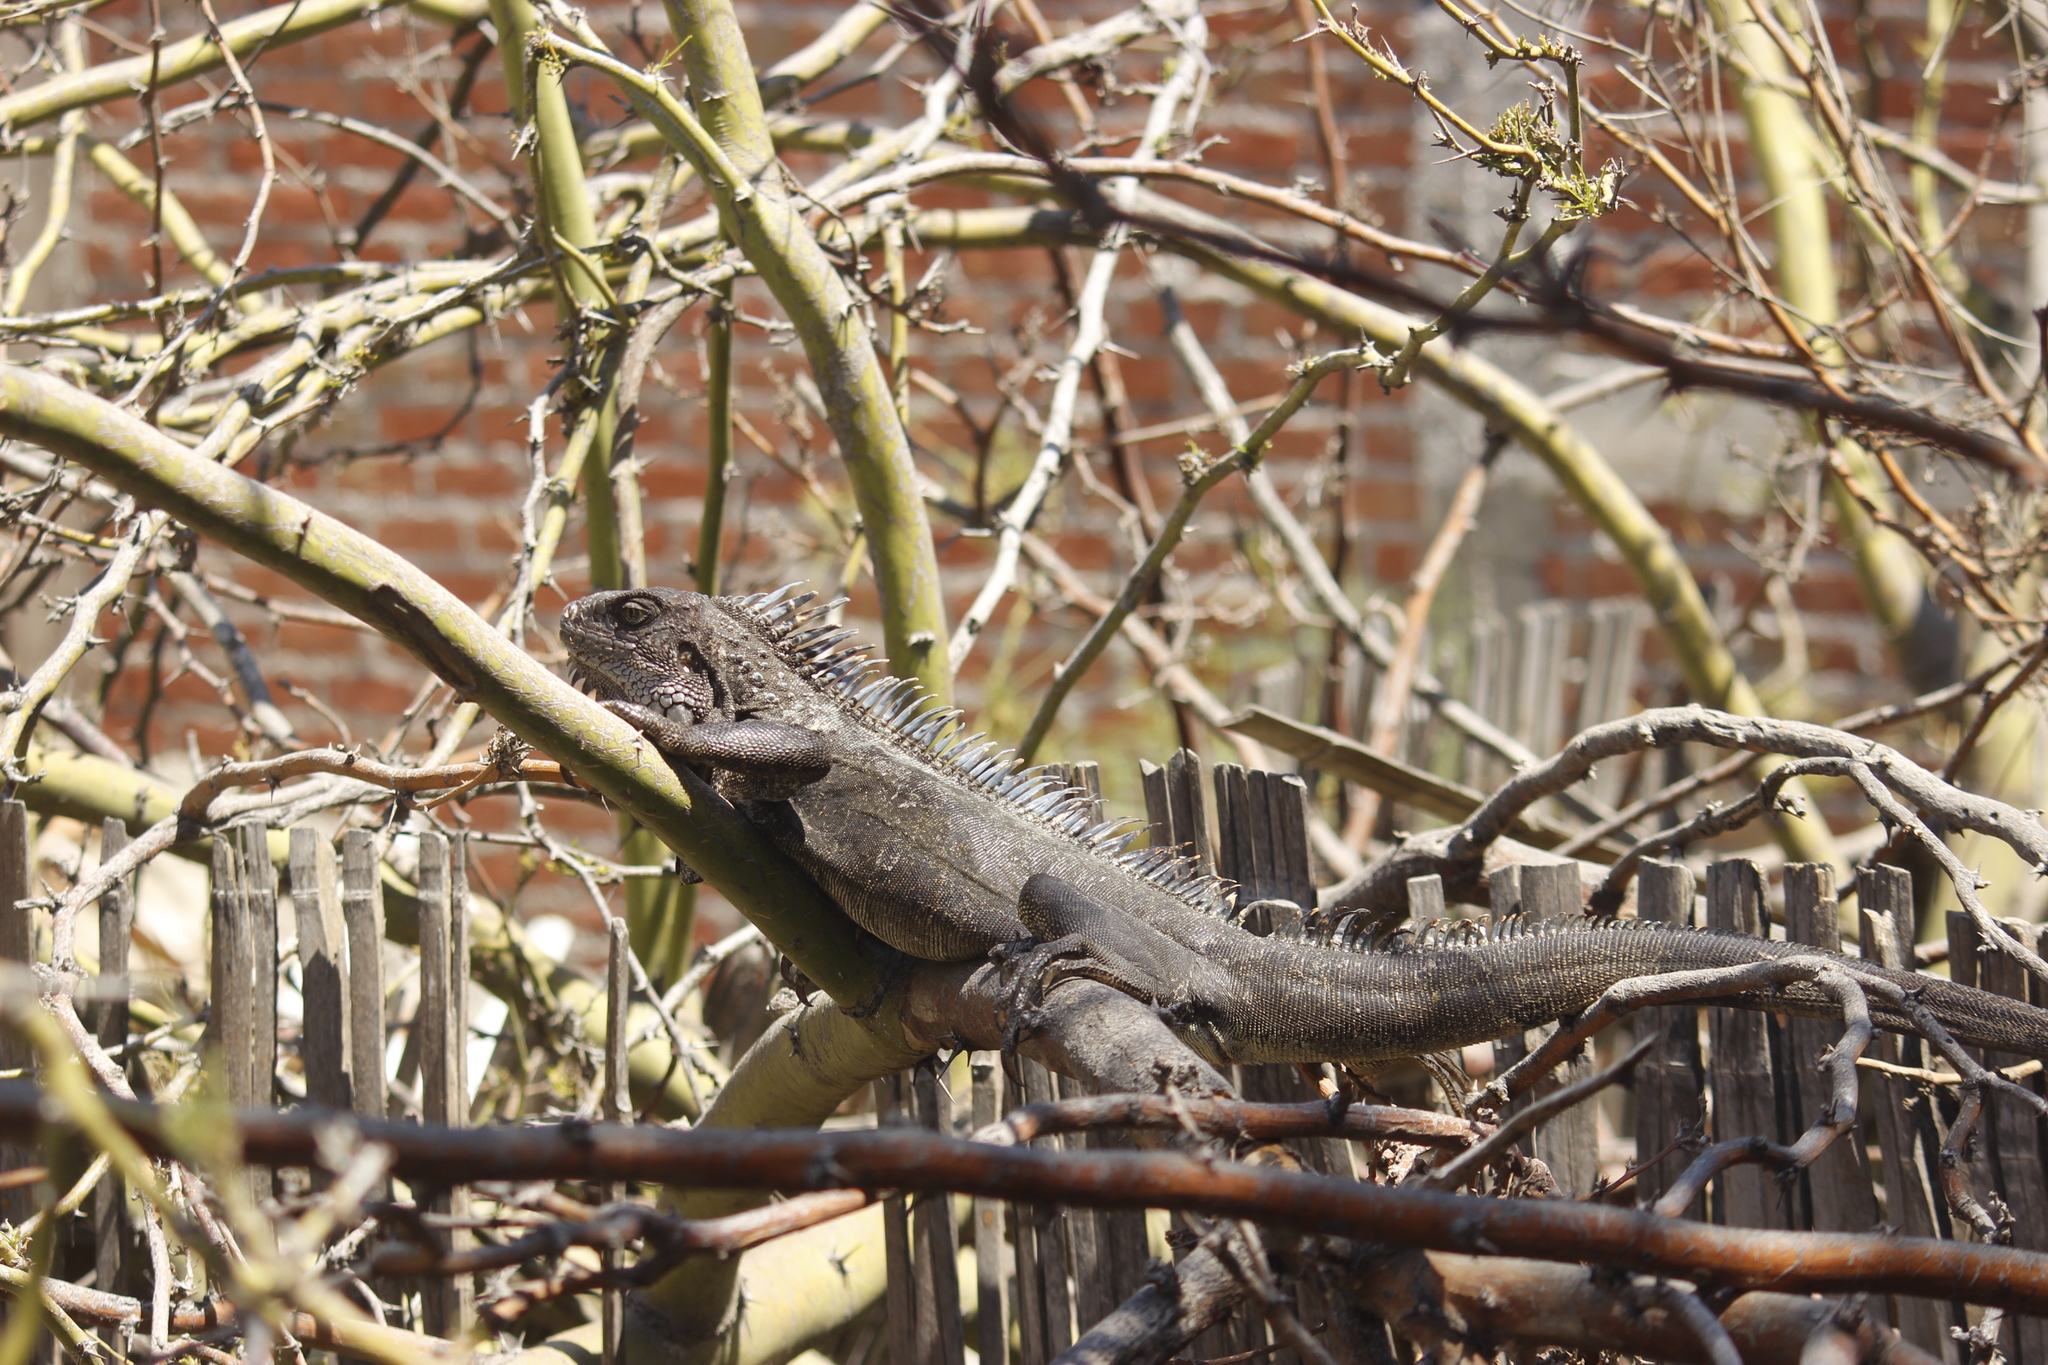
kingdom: Animalia
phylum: Chordata
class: Squamata
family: Iguanidae
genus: Iguana
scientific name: Iguana iguana
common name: Green iguana
